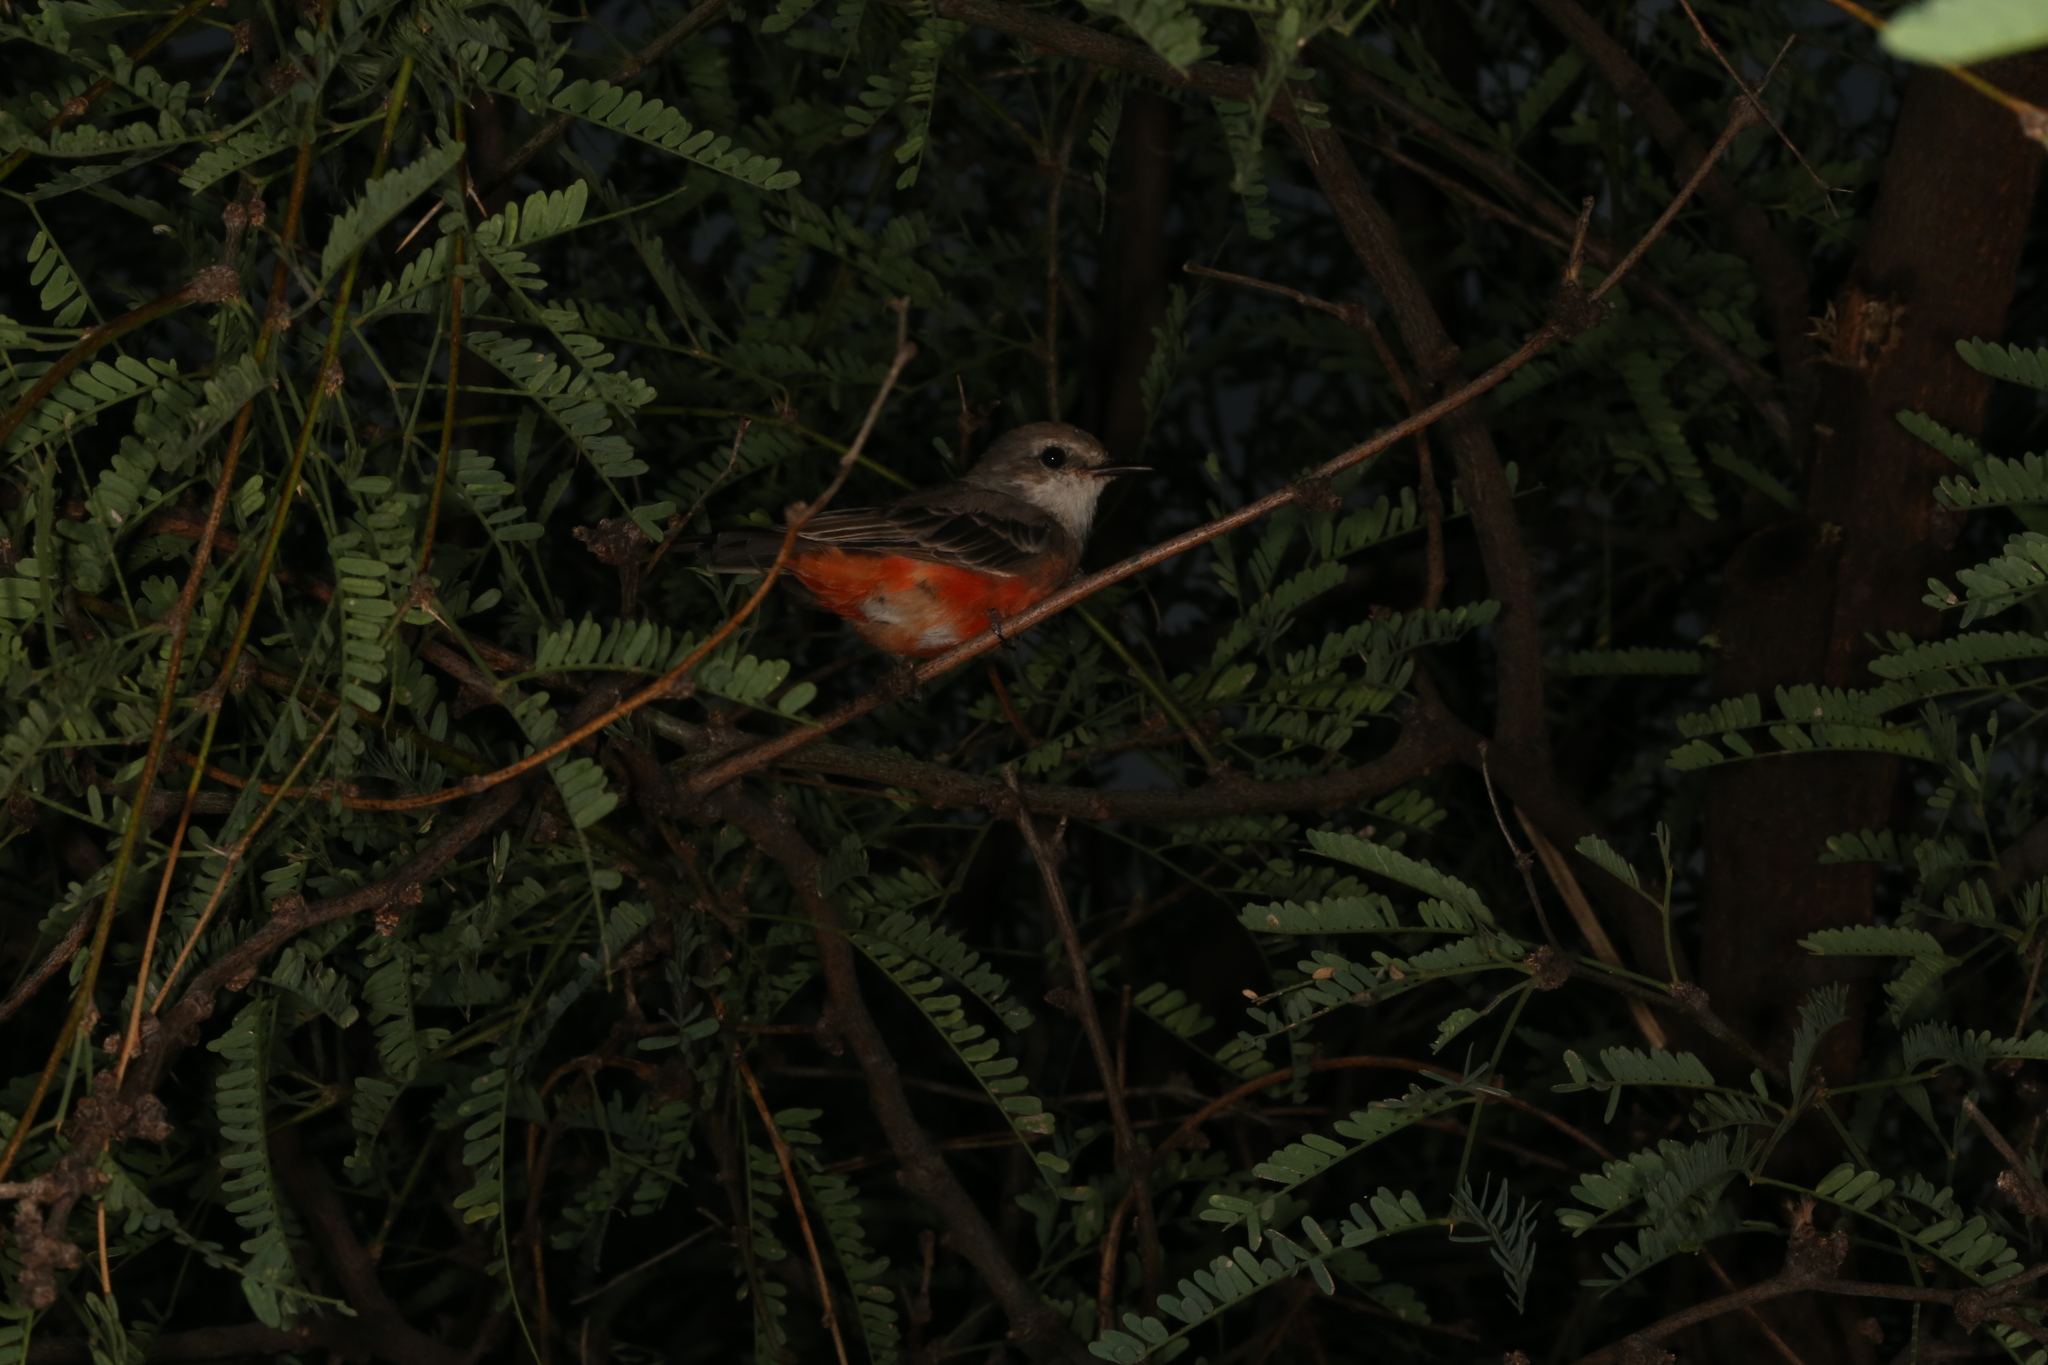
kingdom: Animalia
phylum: Chordata
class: Aves
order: Passeriformes
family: Tyrannidae
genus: Pyrocephalus
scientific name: Pyrocephalus rubinus
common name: Vermilion flycatcher
